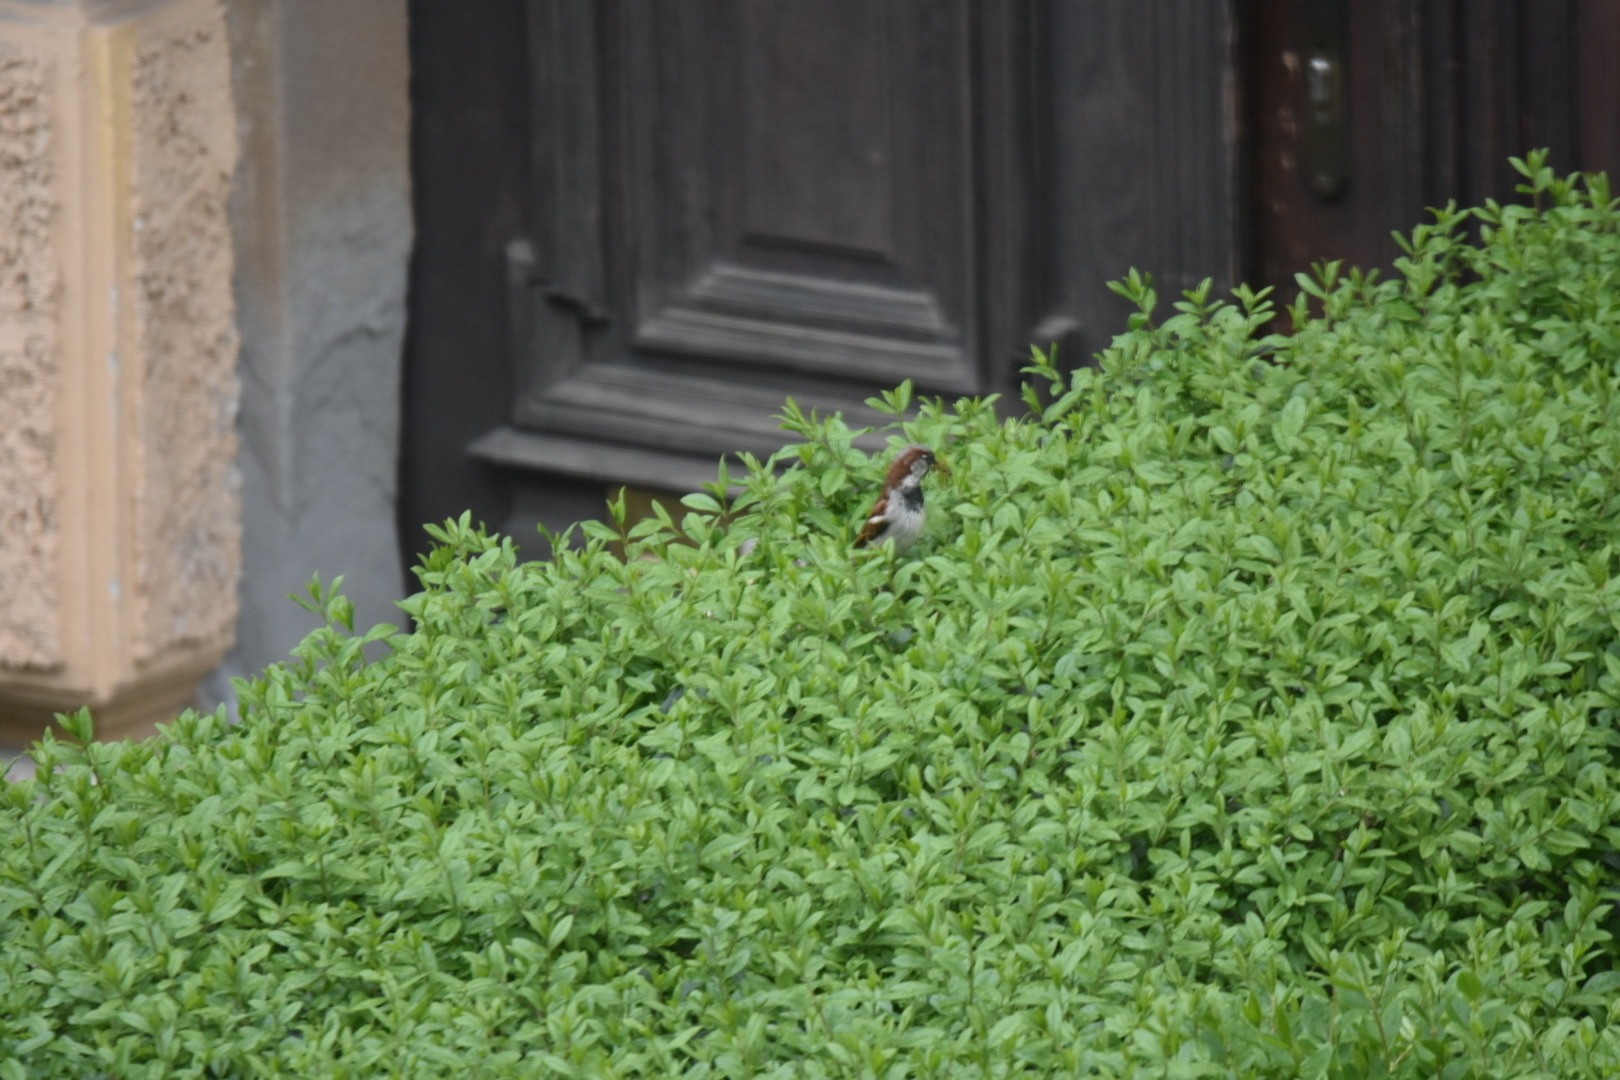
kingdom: Animalia
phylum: Chordata
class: Aves
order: Passeriformes
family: Passeridae
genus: Passer
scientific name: Passer domesticus
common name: House sparrow
